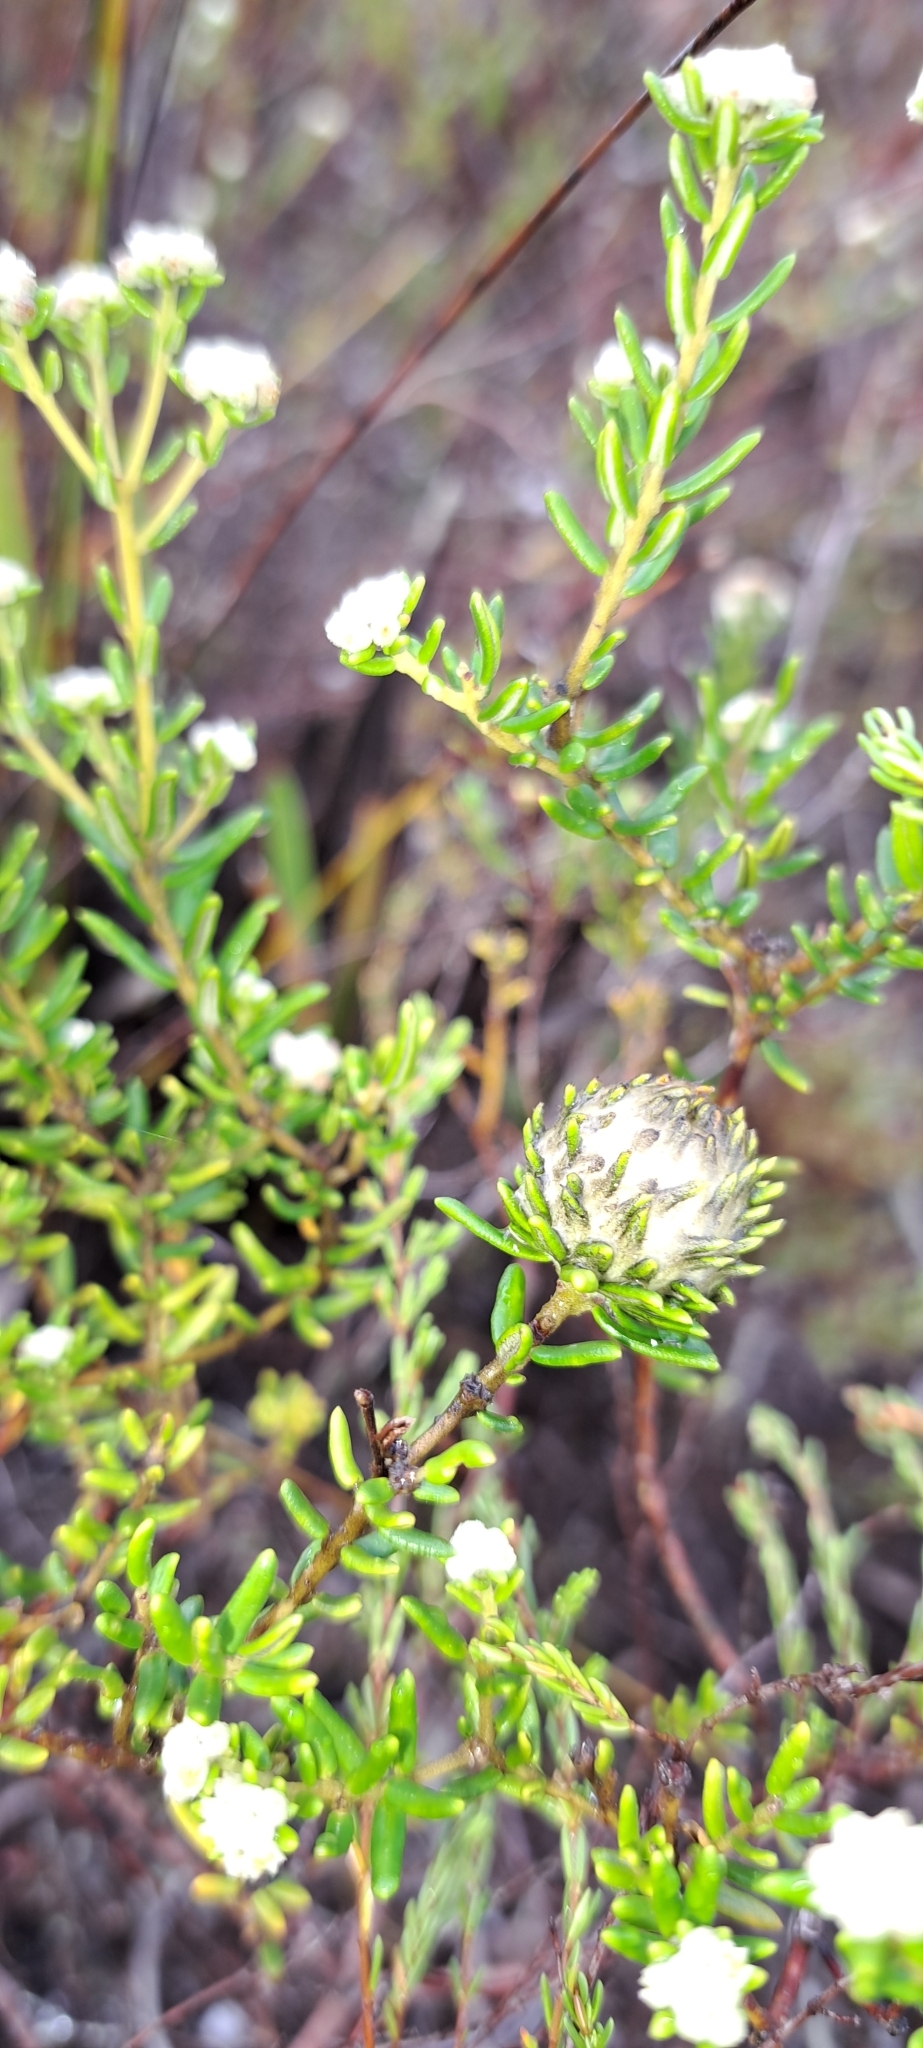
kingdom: Plantae
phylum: Tracheophyta
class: Magnoliopsida
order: Rosales
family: Rhamnaceae
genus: Phylica
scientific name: Phylica lasiocarpa
